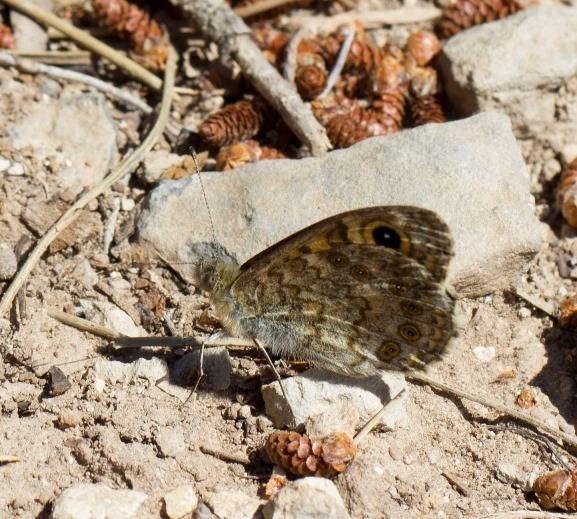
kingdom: Animalia
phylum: Arthropoda
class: Insecta
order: Lepidoptera
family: Nymphalidae
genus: Pararge
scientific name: Pararge Lasiommata megera
